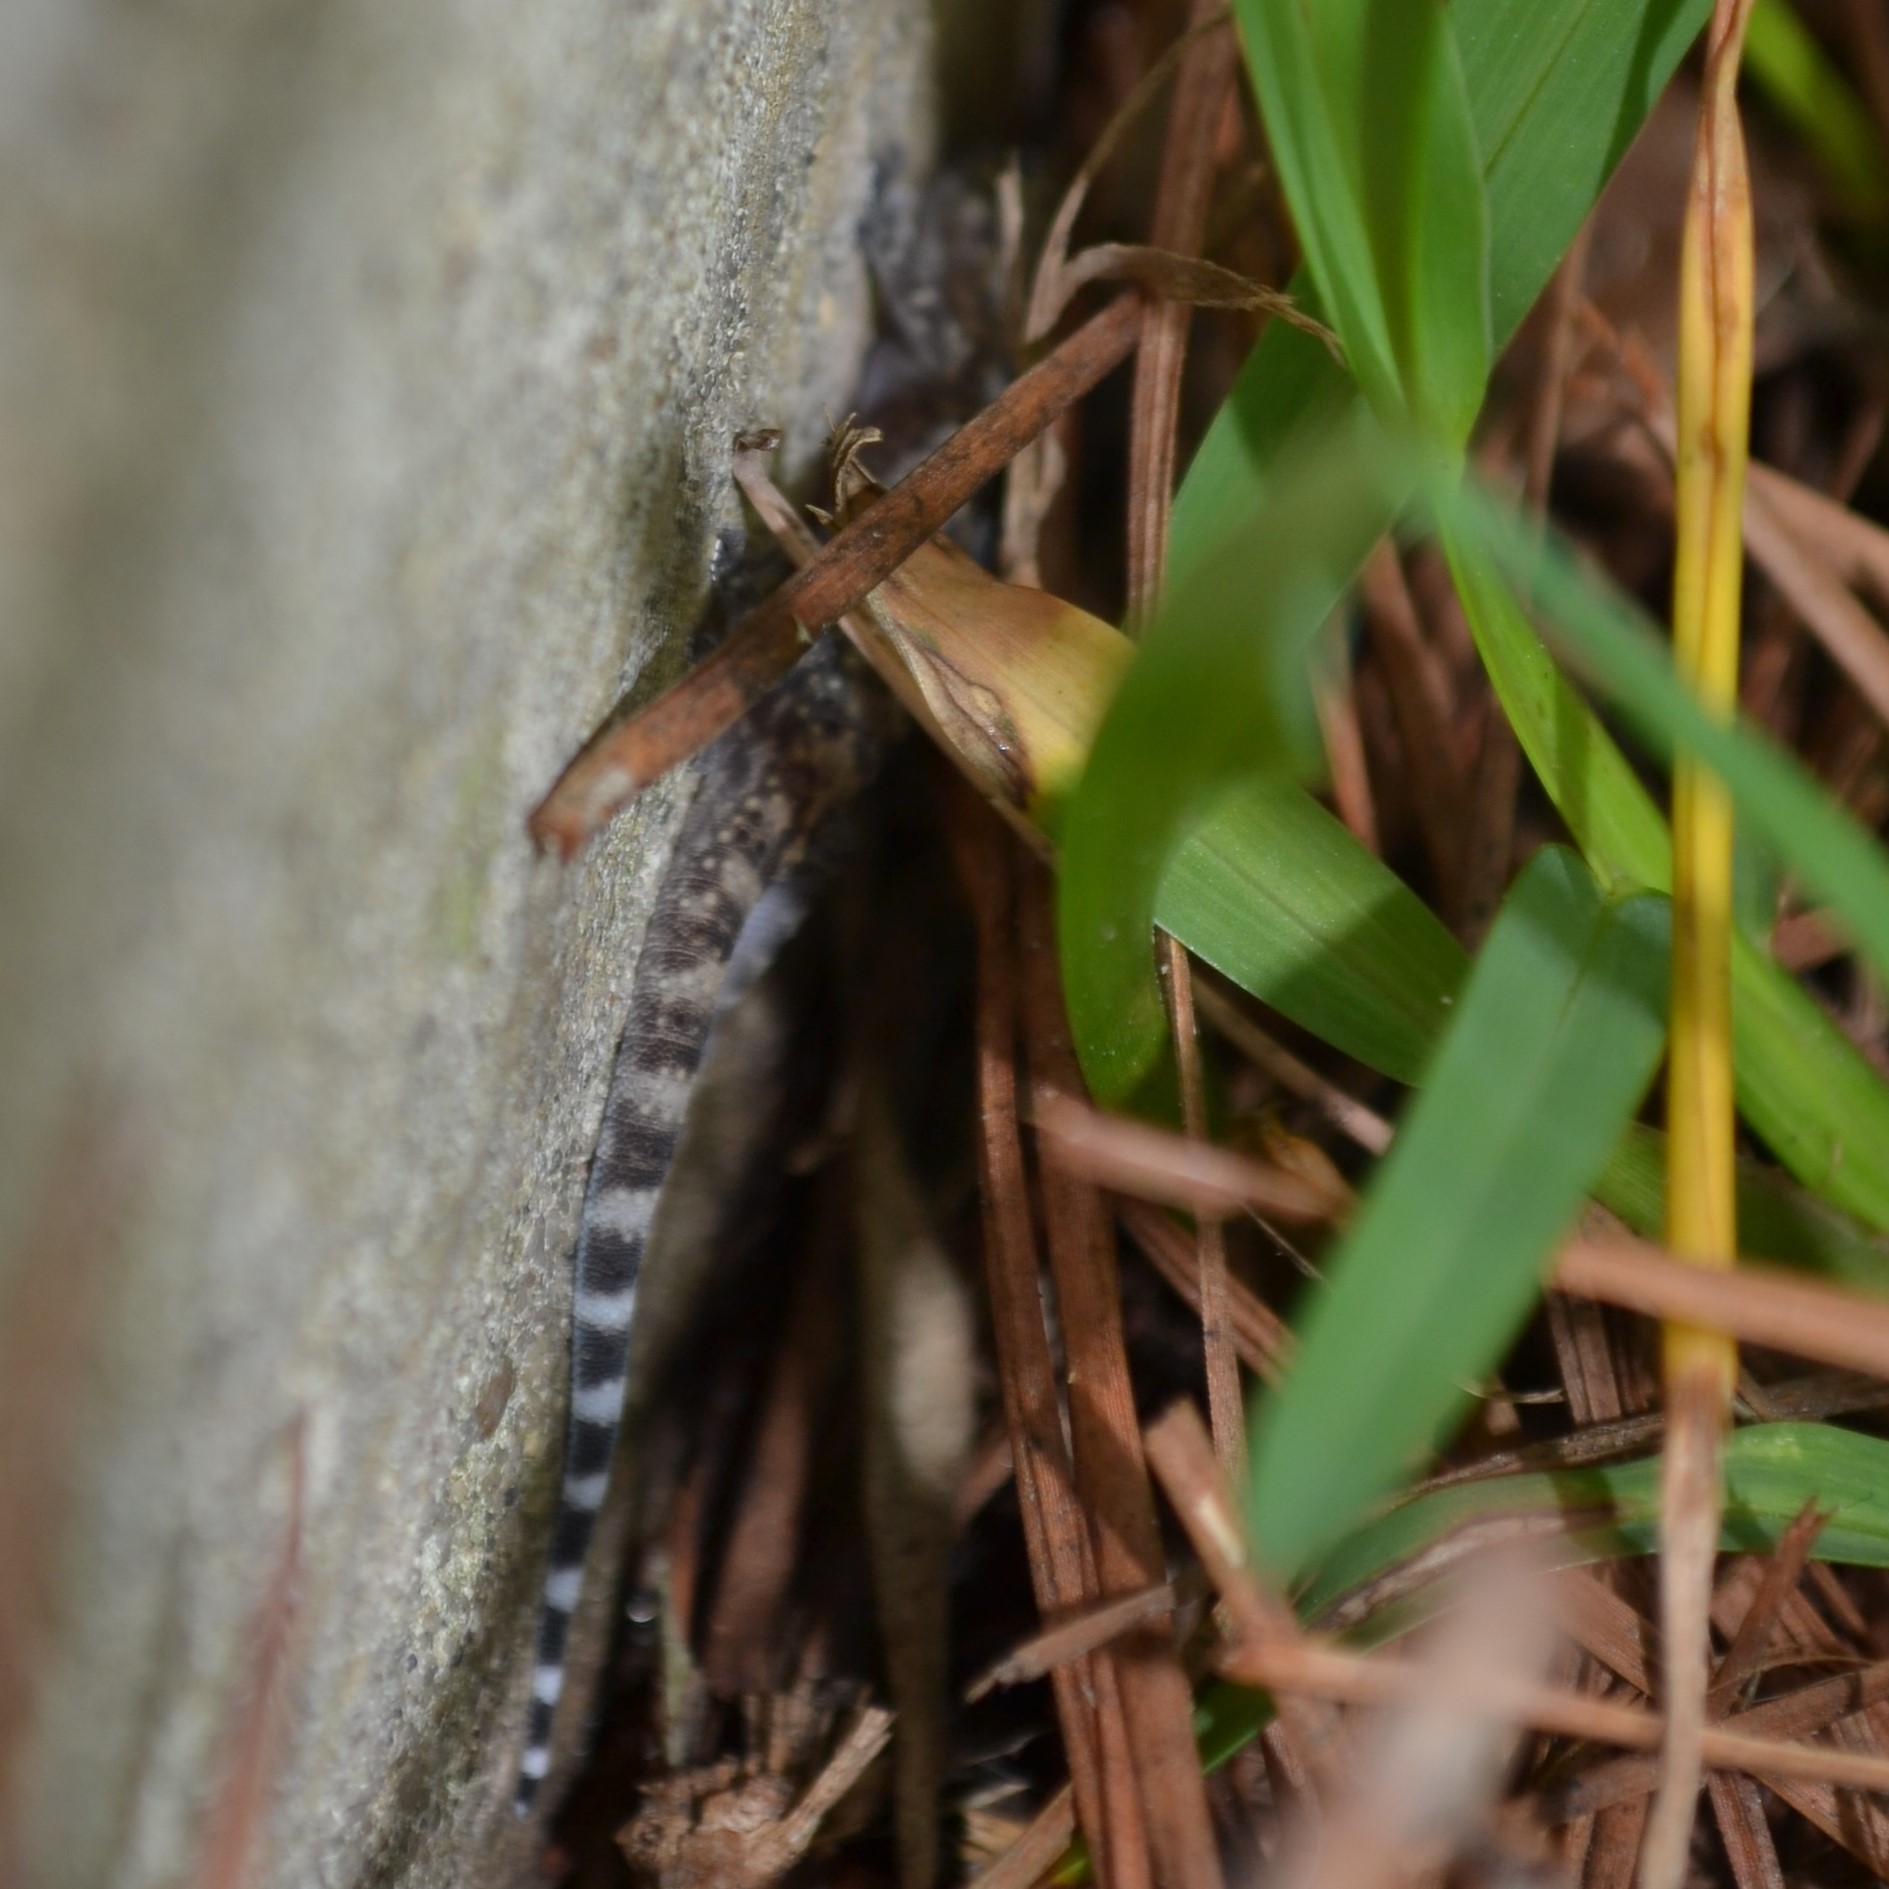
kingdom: Animalia
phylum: Chordata
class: Squamata
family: Gekkonidae
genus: Hemidactylus
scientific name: Hemidactylus turcicus
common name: Turkish gecko
